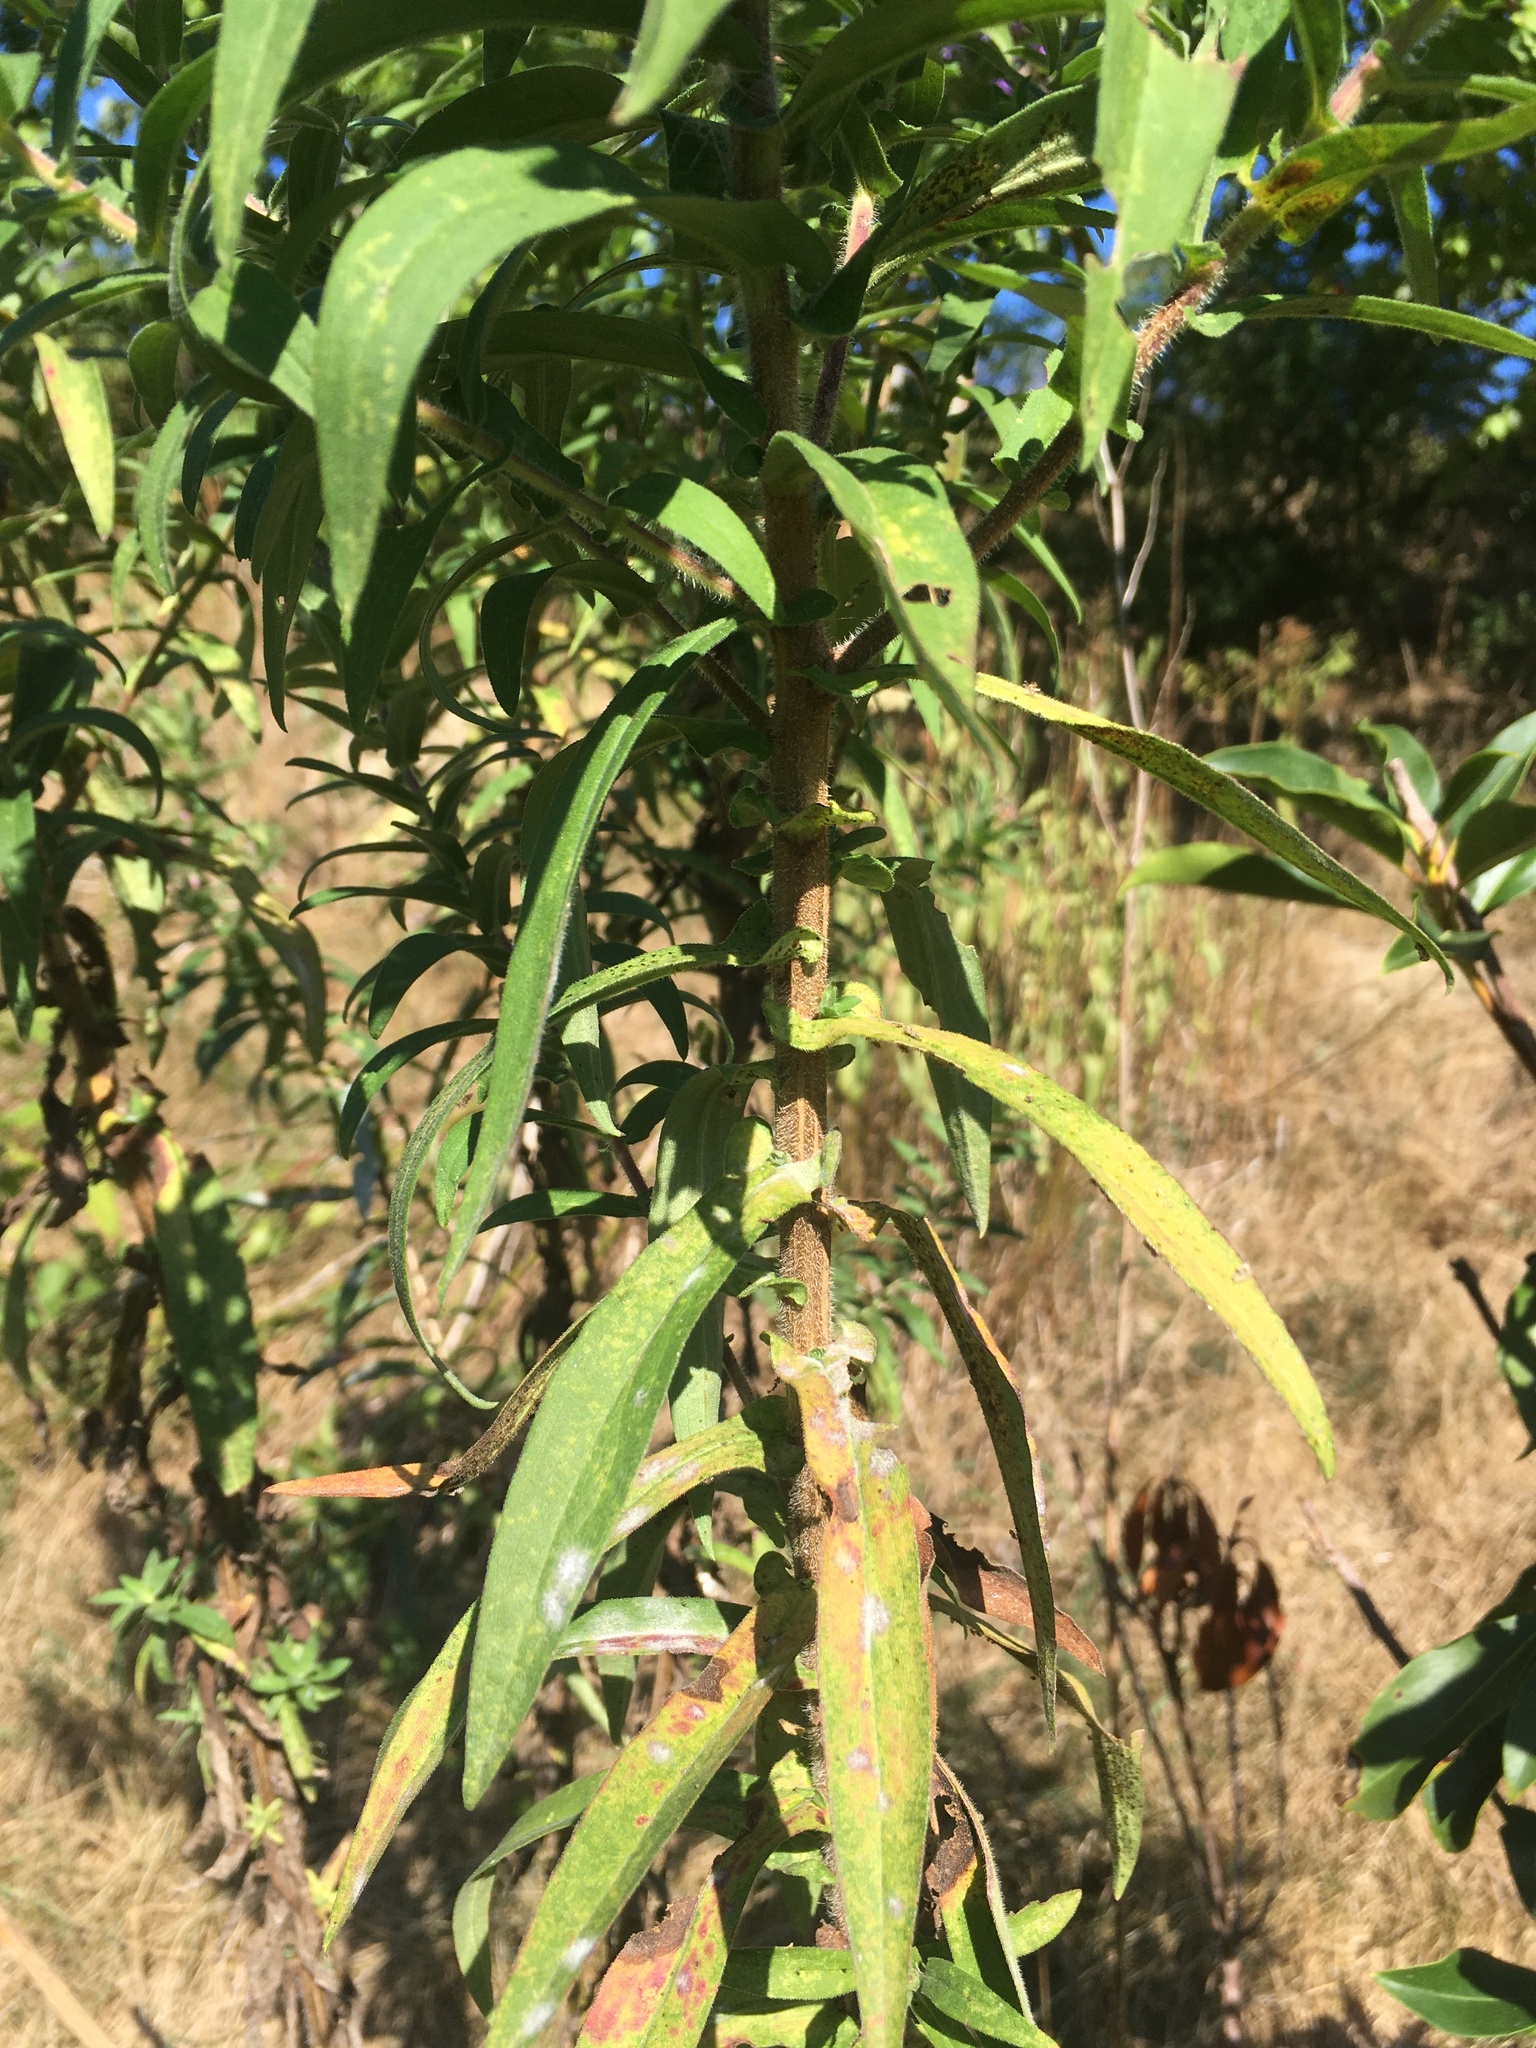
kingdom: Plantae
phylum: Tracheophyta
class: Magnoliopsida
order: Asterales
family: Asteraceae
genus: Symphyotrichum
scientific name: Symphyotrichum novae-angliae
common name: Michaelmas daisy
